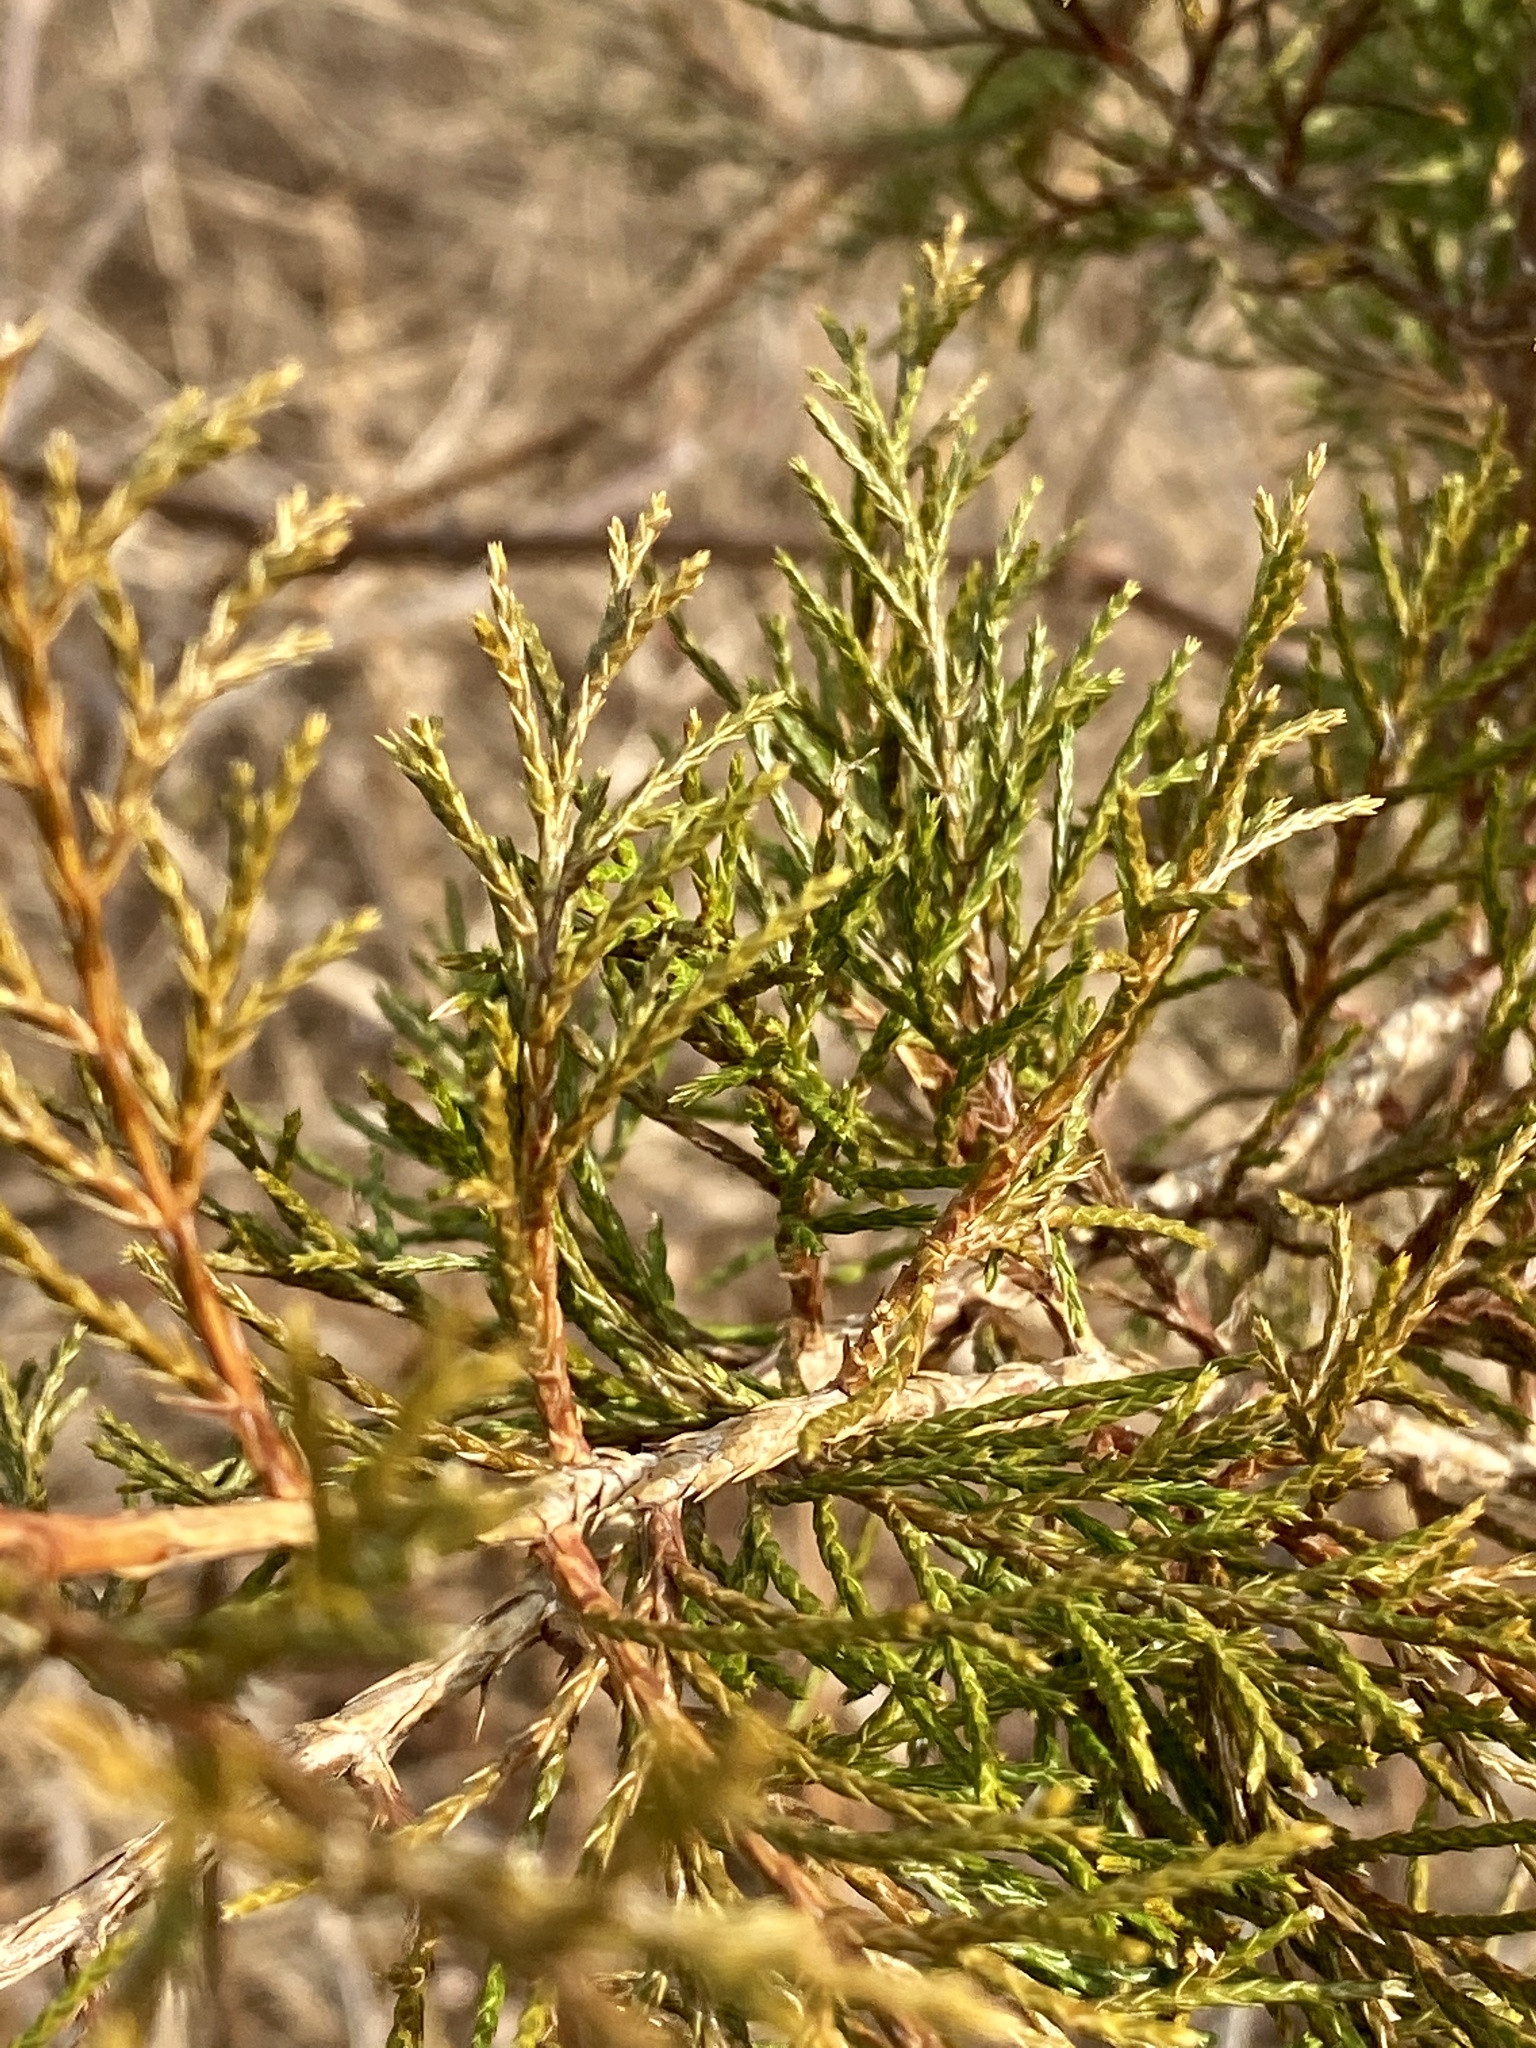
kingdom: Plantae
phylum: Tracheophyta
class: Pinopsida
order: Pinales
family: Cupressaceae
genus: Juniperus
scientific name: Juniperus virginiana
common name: Red juniper
